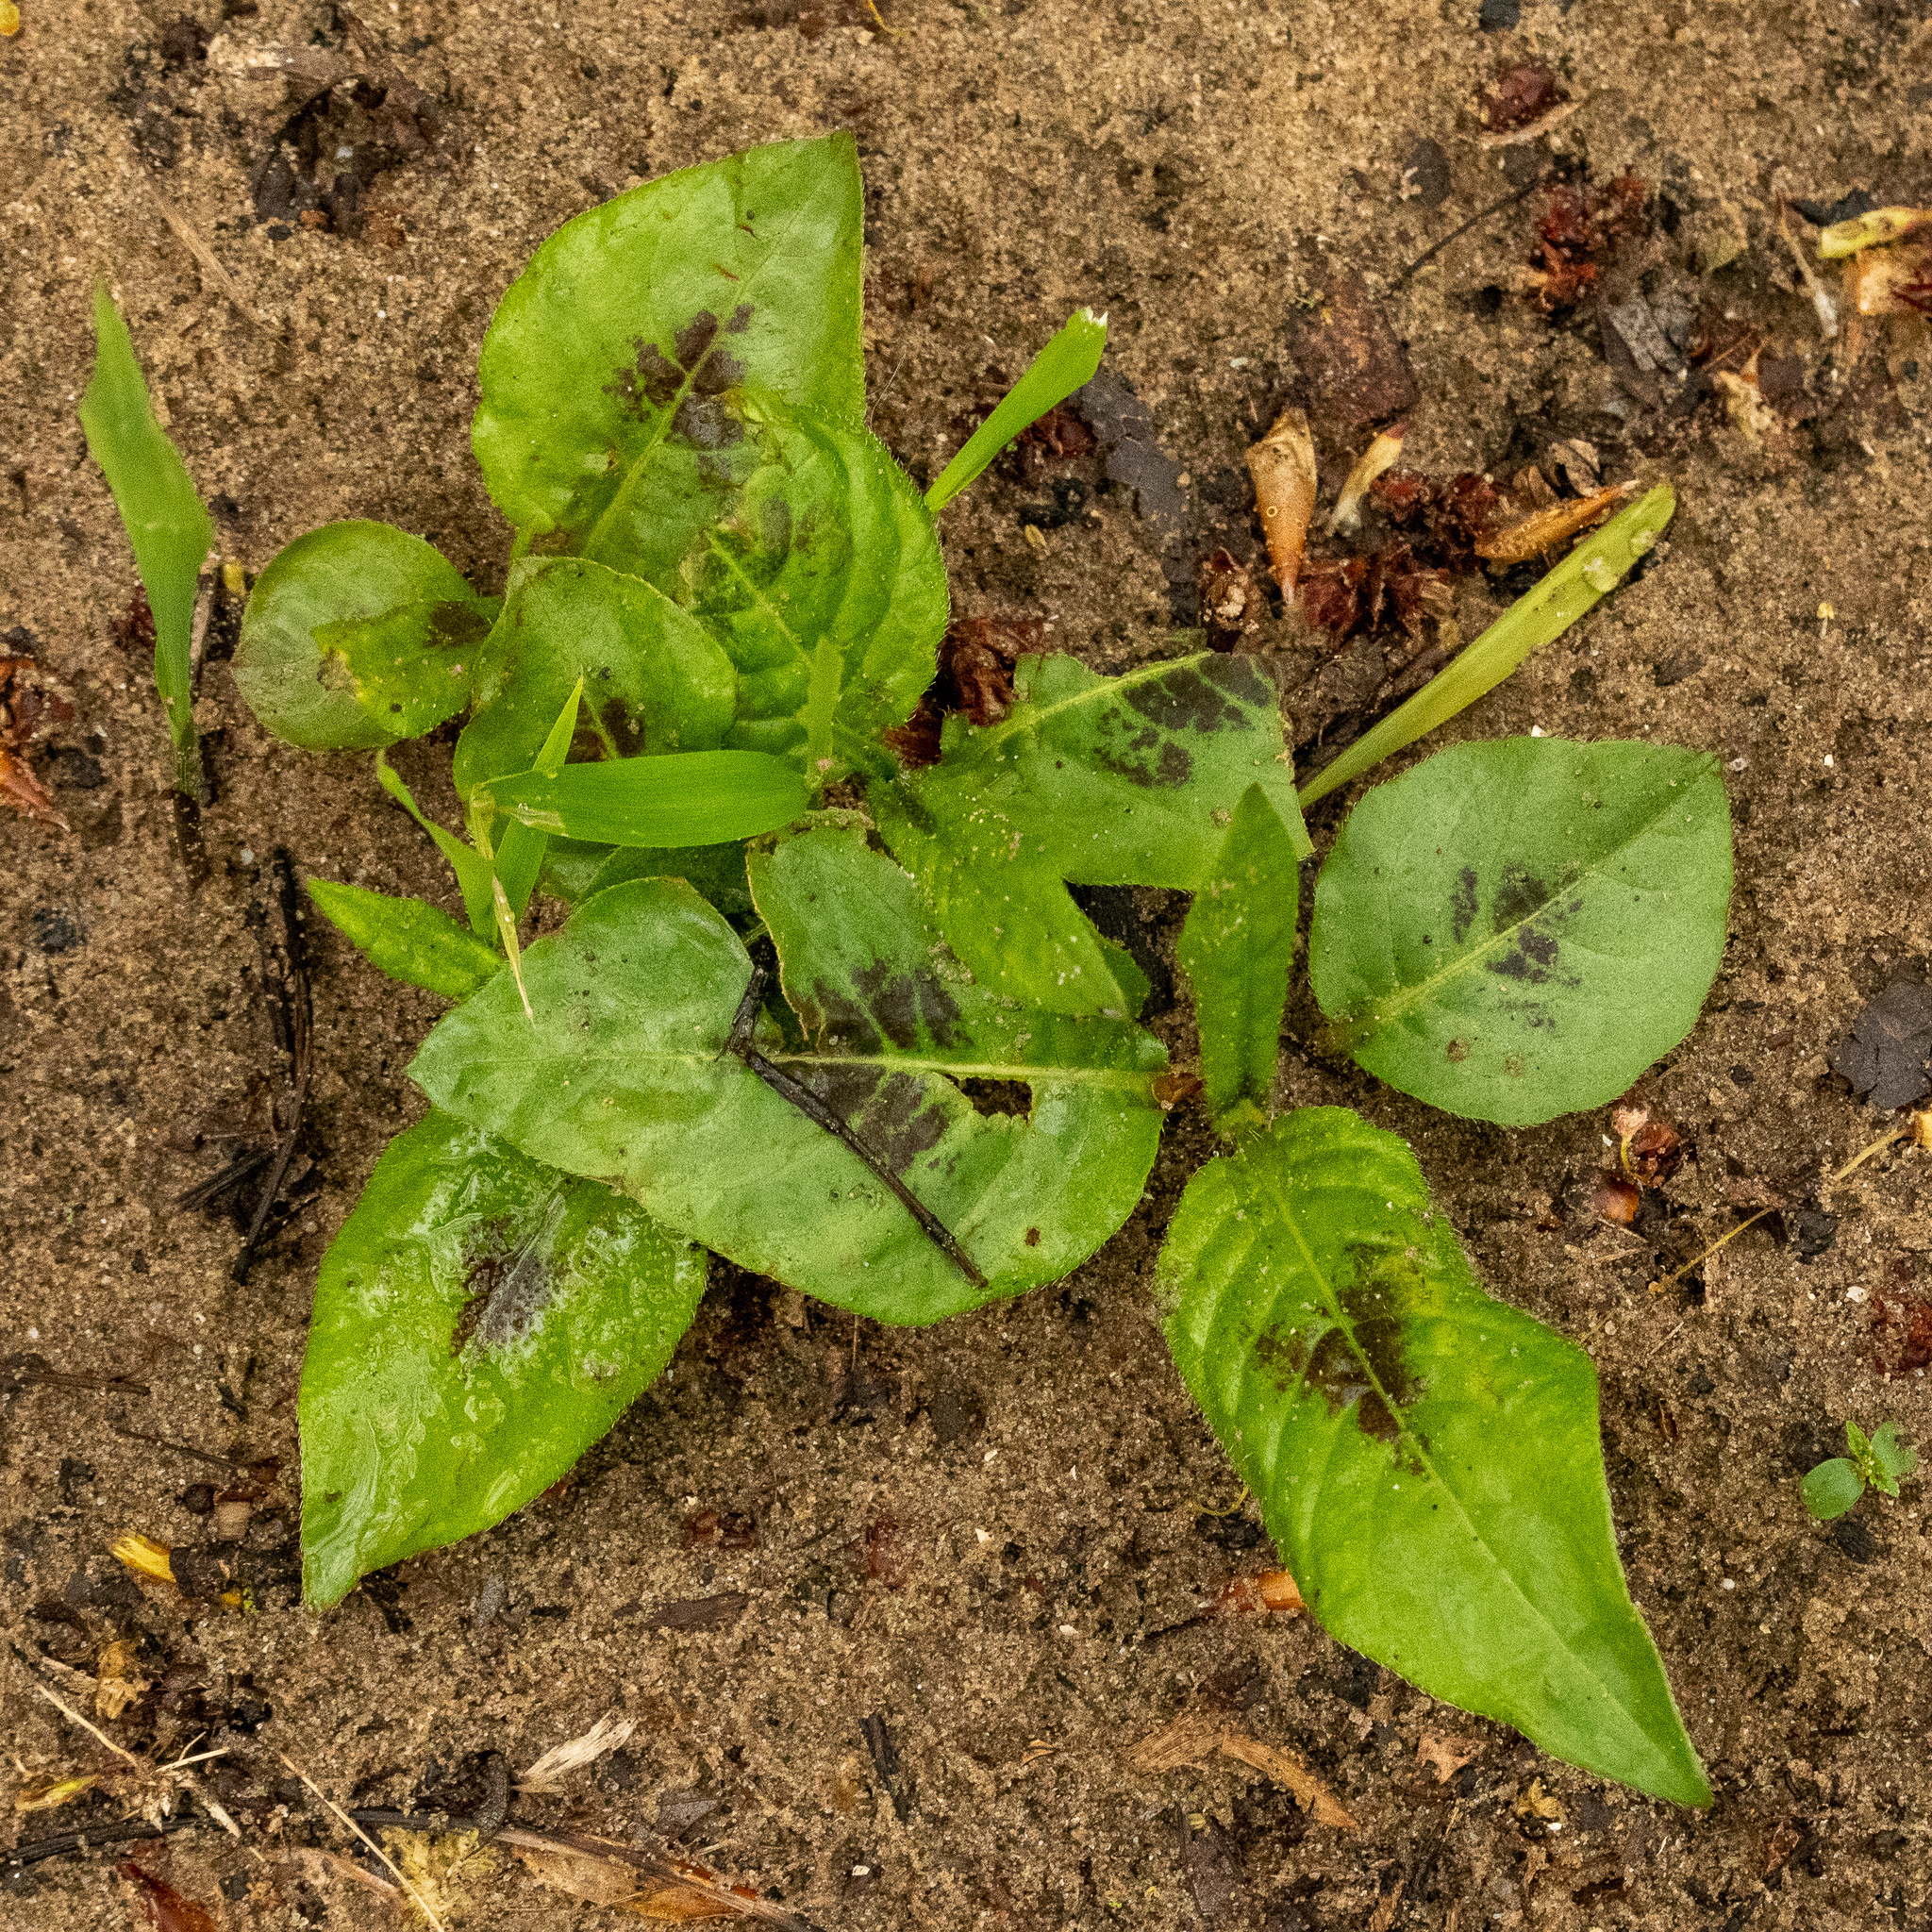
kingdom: Plantae
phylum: Tracheophyta
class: Magnoliopsida
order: Caryophyllales
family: Polygonaceae
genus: Persicaria
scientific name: Persicaria virginiana
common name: Jumpseed
